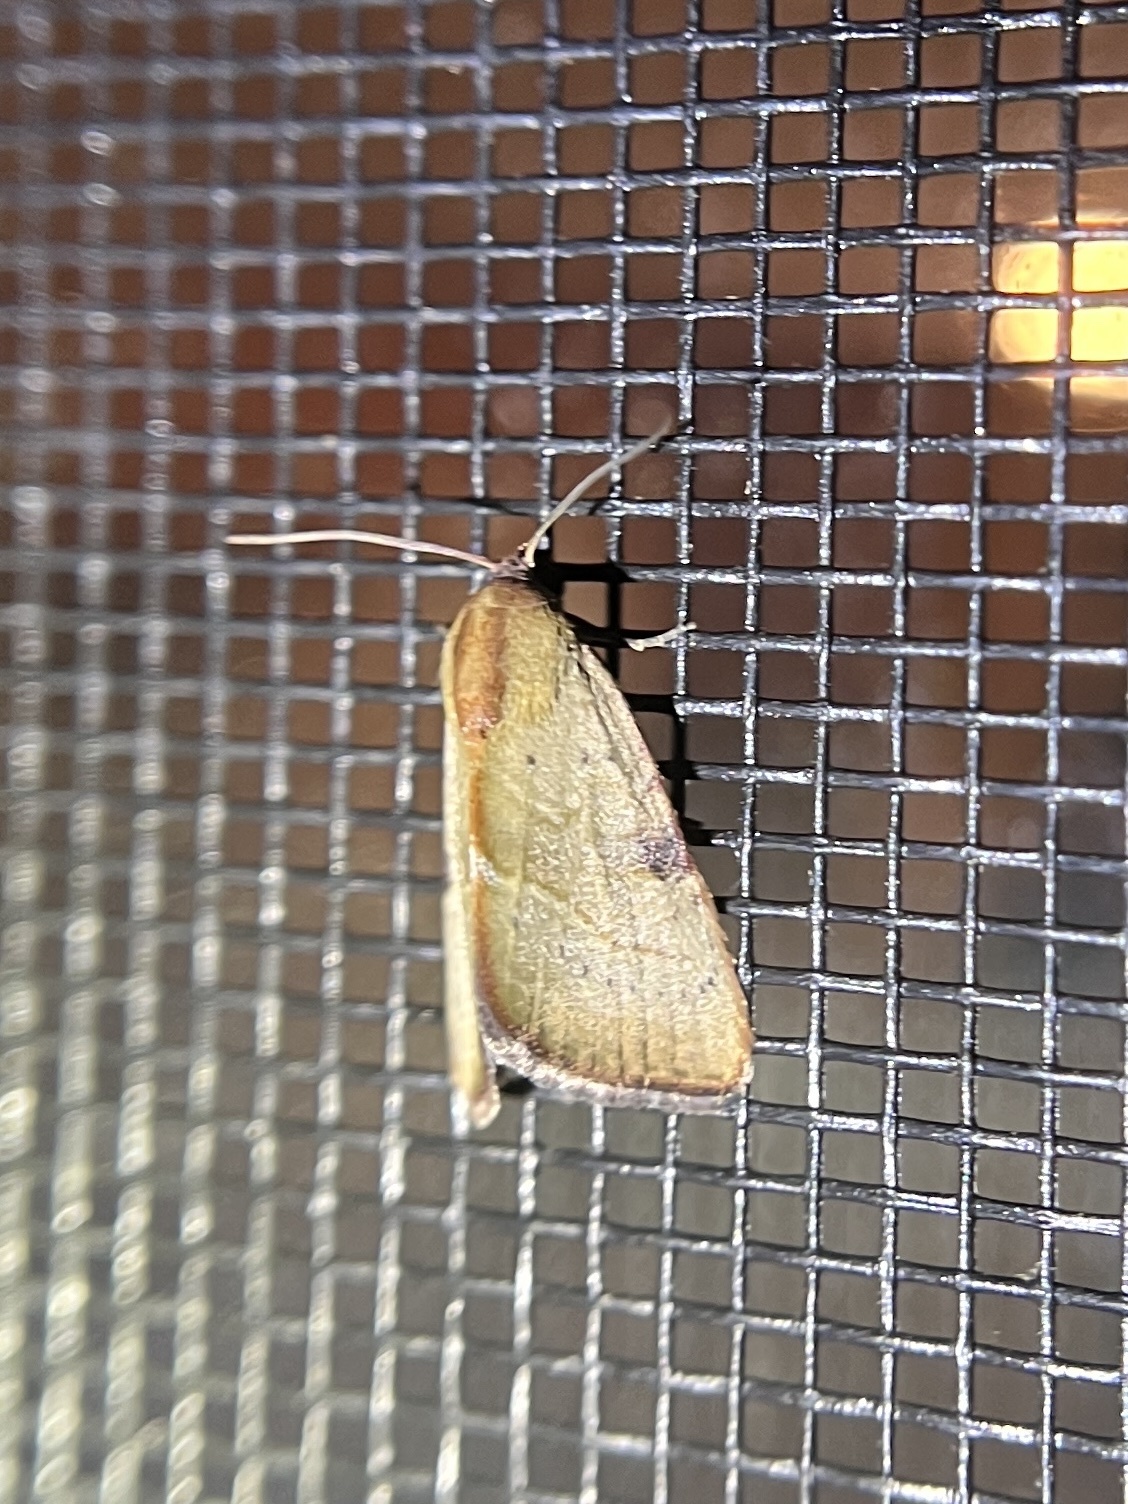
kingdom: Animalia
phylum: Arthropoda
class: Insecta
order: Lepidoptera
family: Noctuidae
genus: Galgula
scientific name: Galgula partita
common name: Wedgeling
